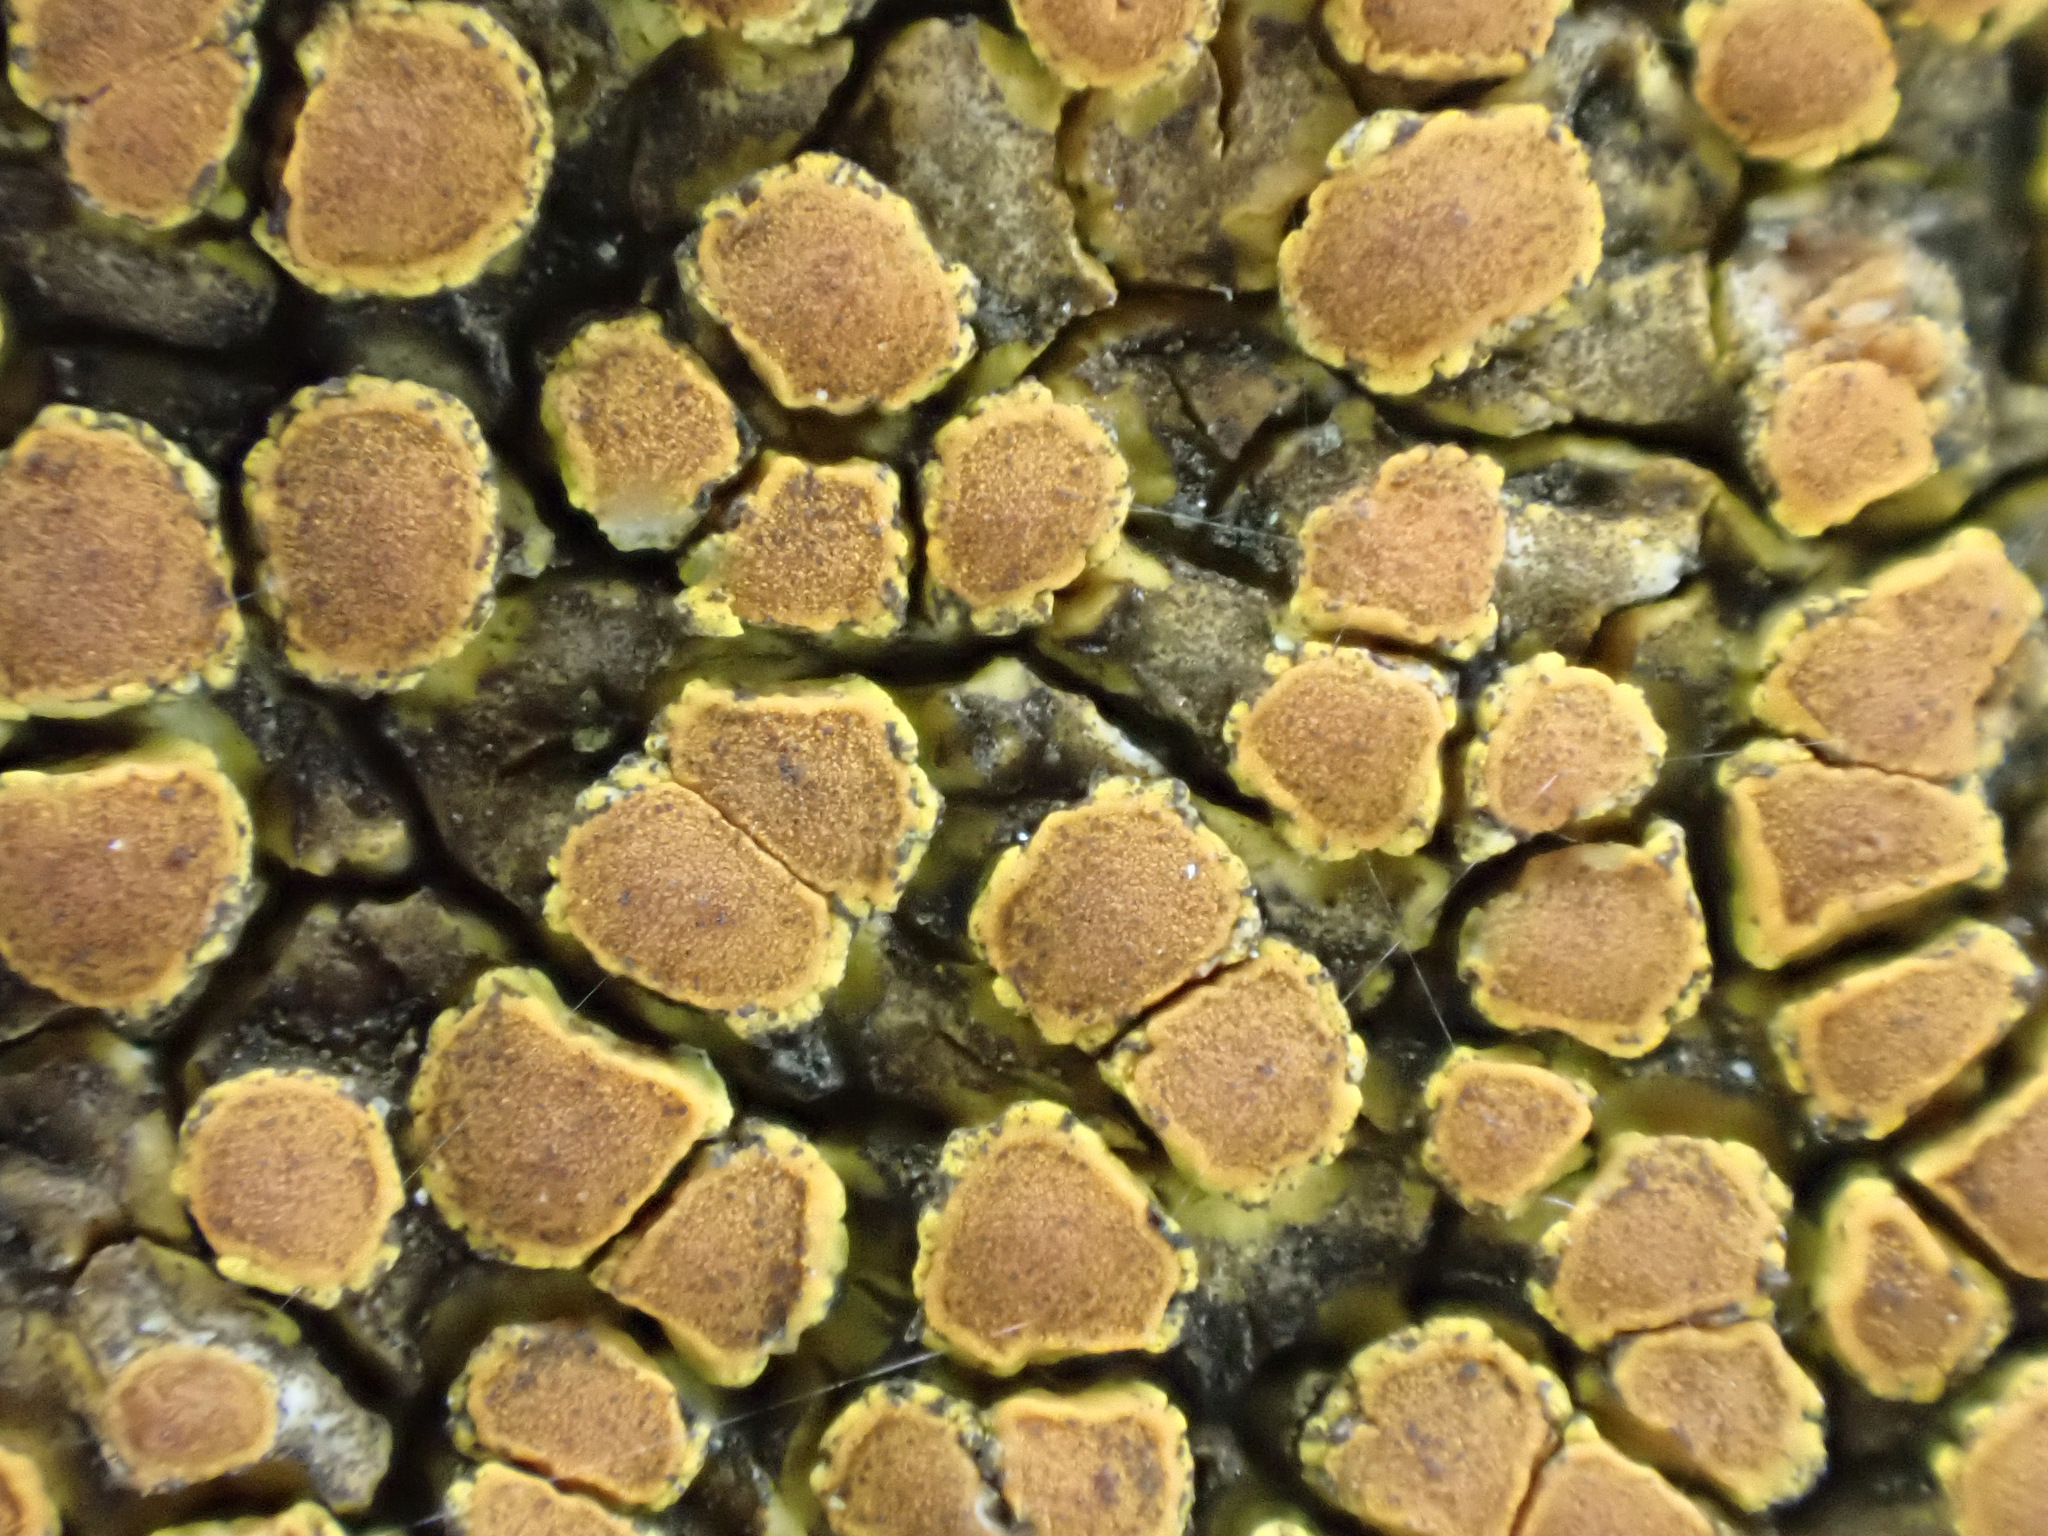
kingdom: Fungi
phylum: Ascomycota
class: Lecanoromycetes
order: Teloschistales
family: Teloschistaceae
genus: Variospora
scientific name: Variospora aurantia
